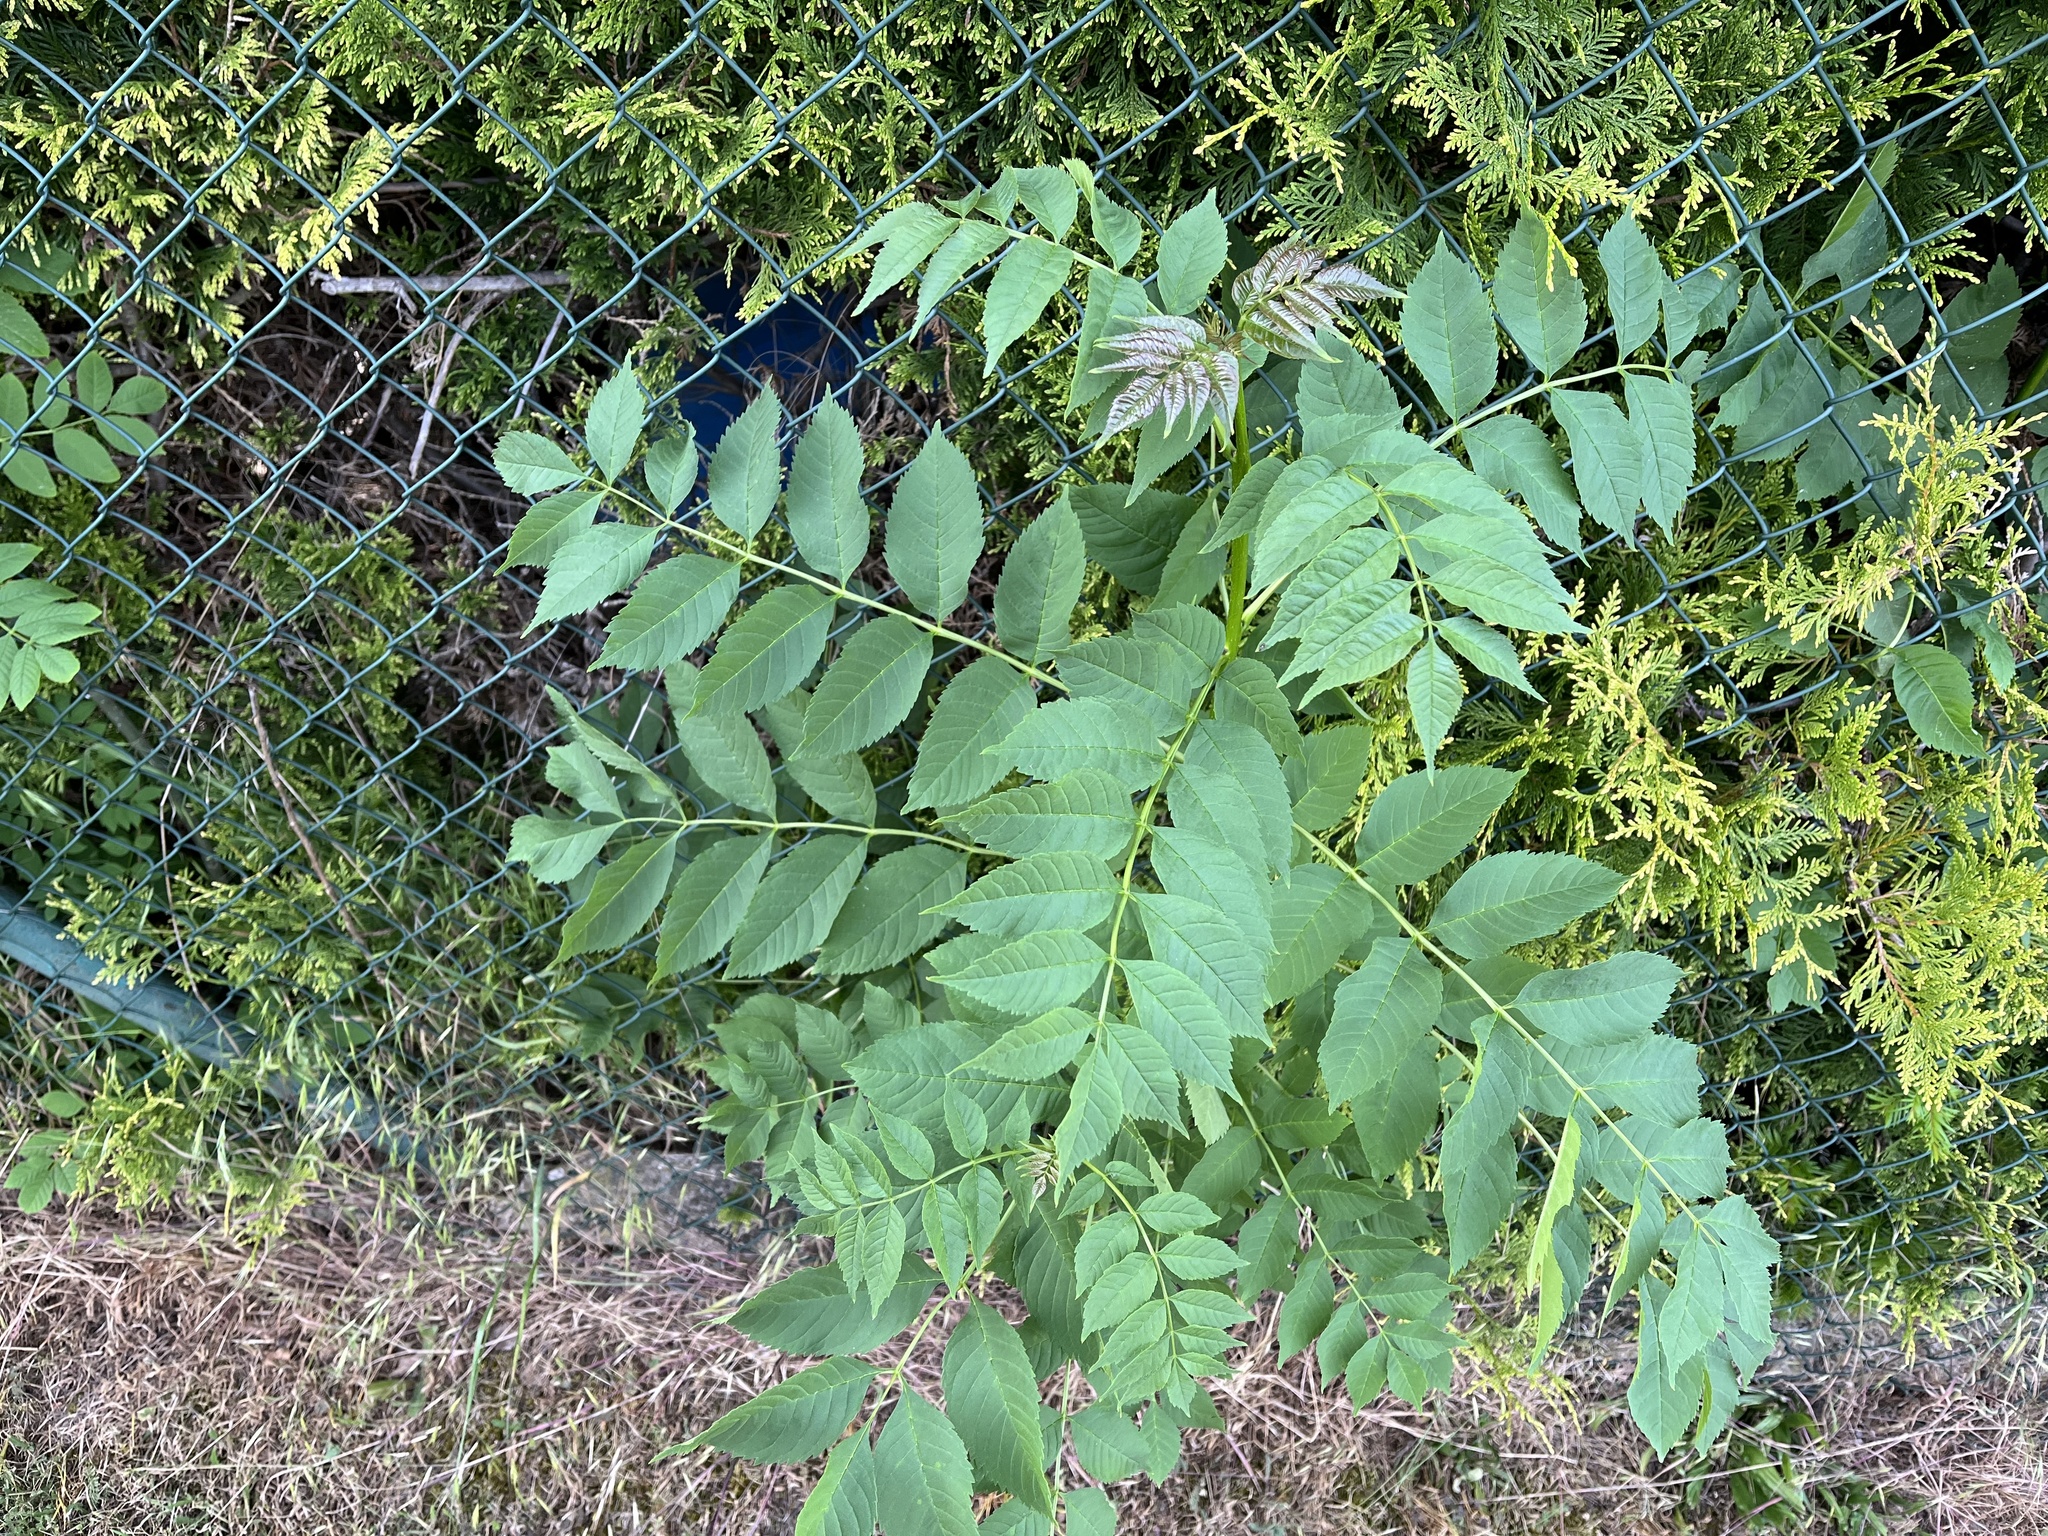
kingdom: Plantae
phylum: Tracheophyta
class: Magnoliopsida
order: Lamiales
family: Oleaceae
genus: Fraxinus
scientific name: Fraxinus excelsior
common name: European ash
